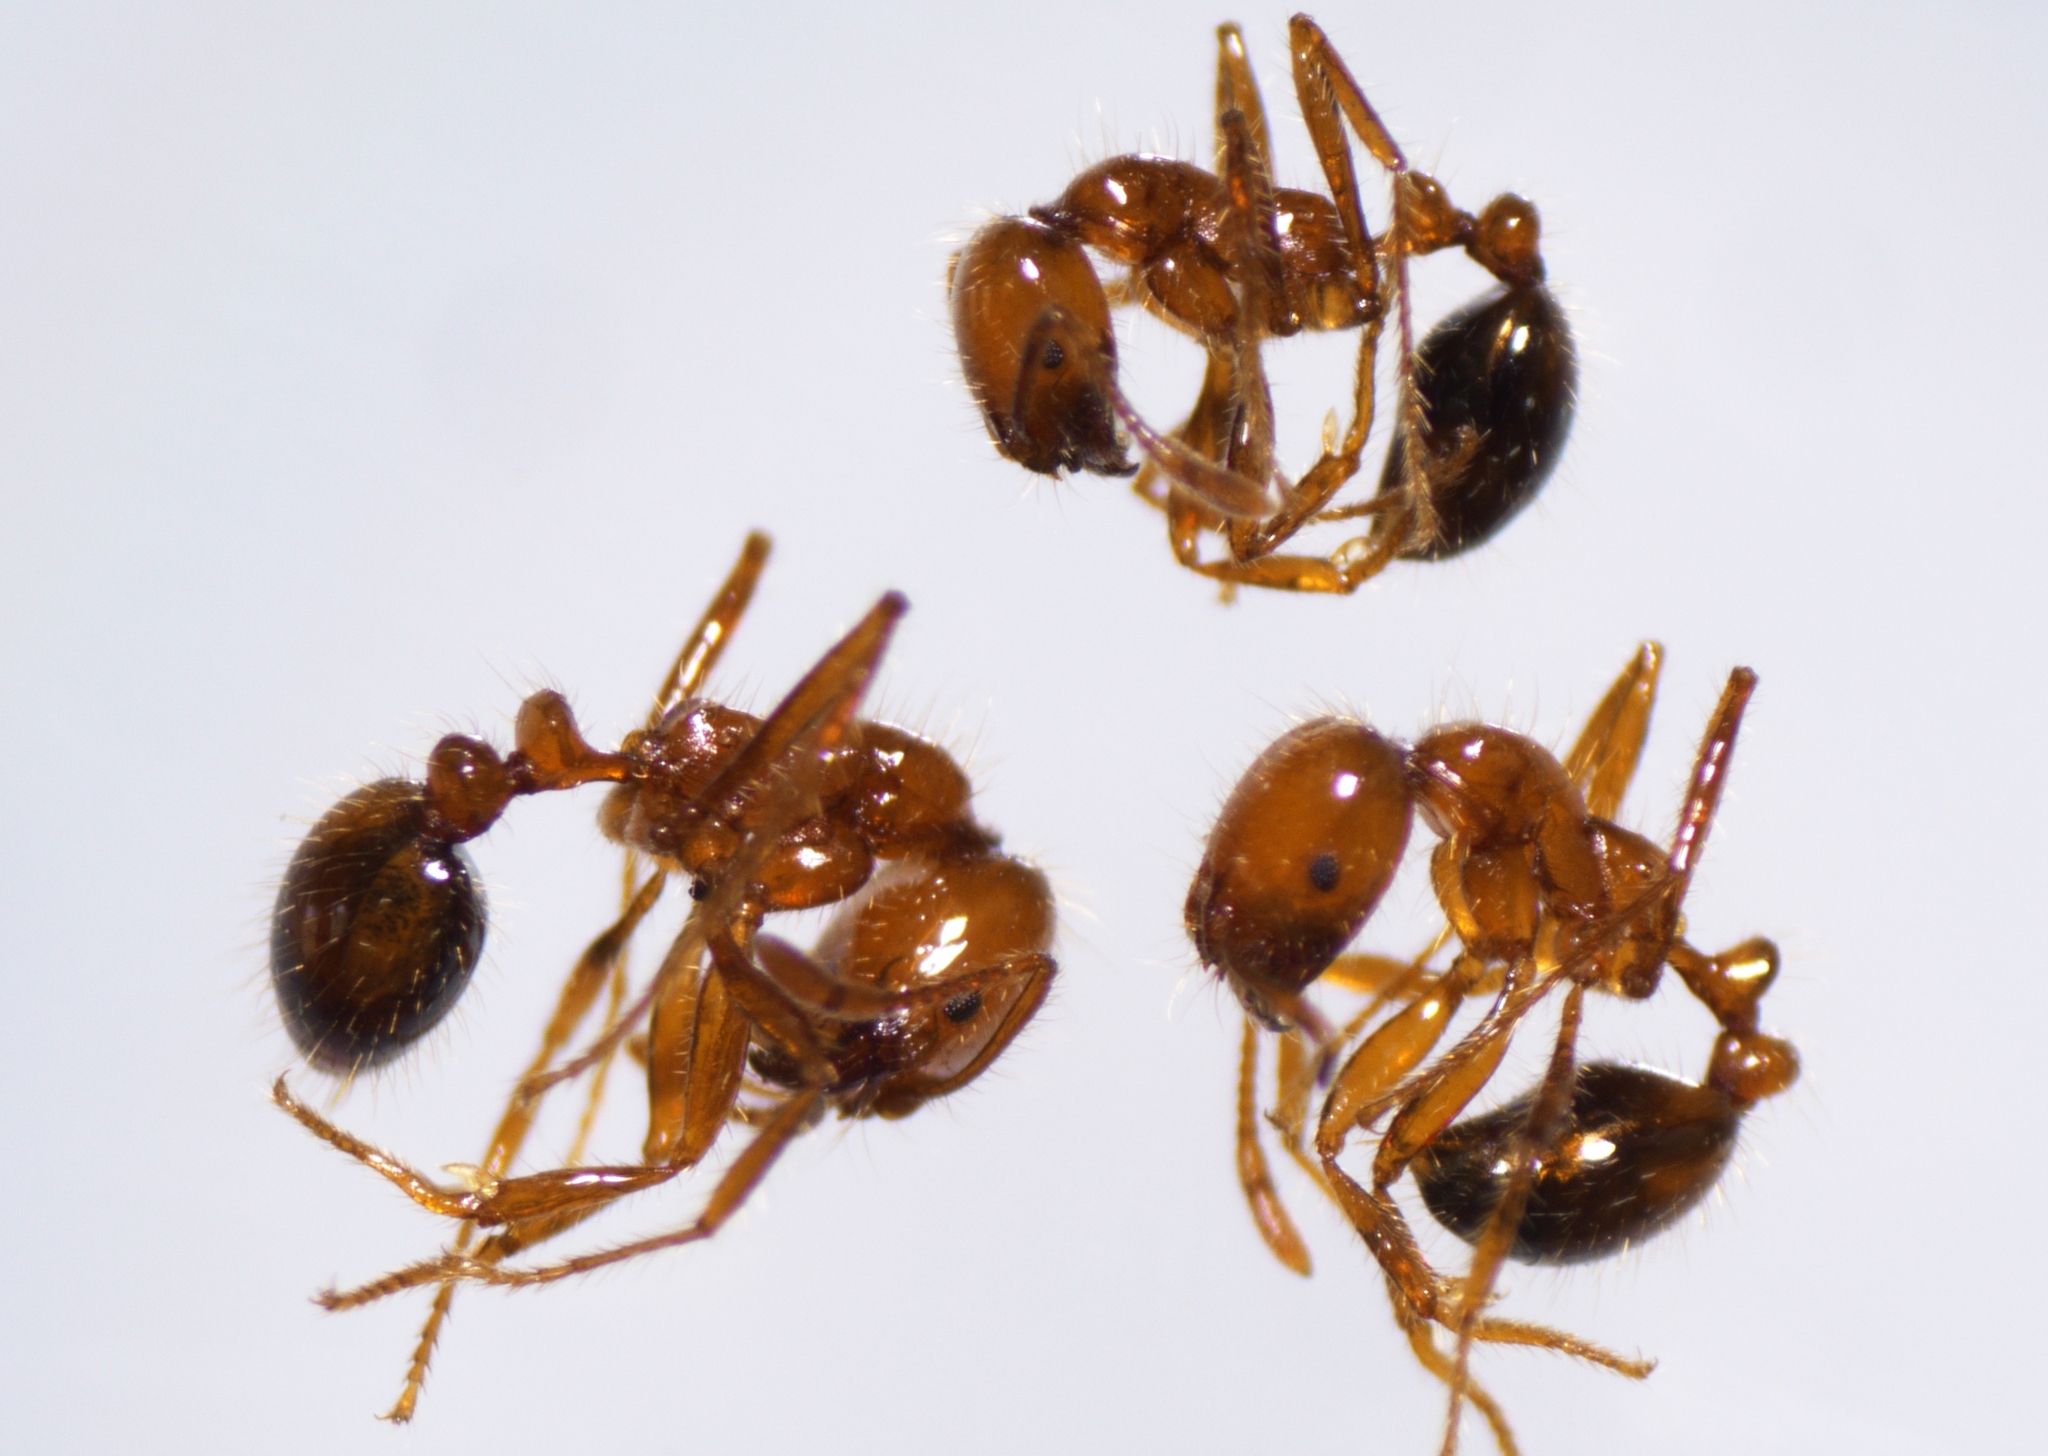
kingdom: Animalia
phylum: Arthropoda
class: Insecta
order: Hymenoptera
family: Formicidae
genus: Solenopsis
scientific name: Solenopsis geminata
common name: Tropical fire ant
